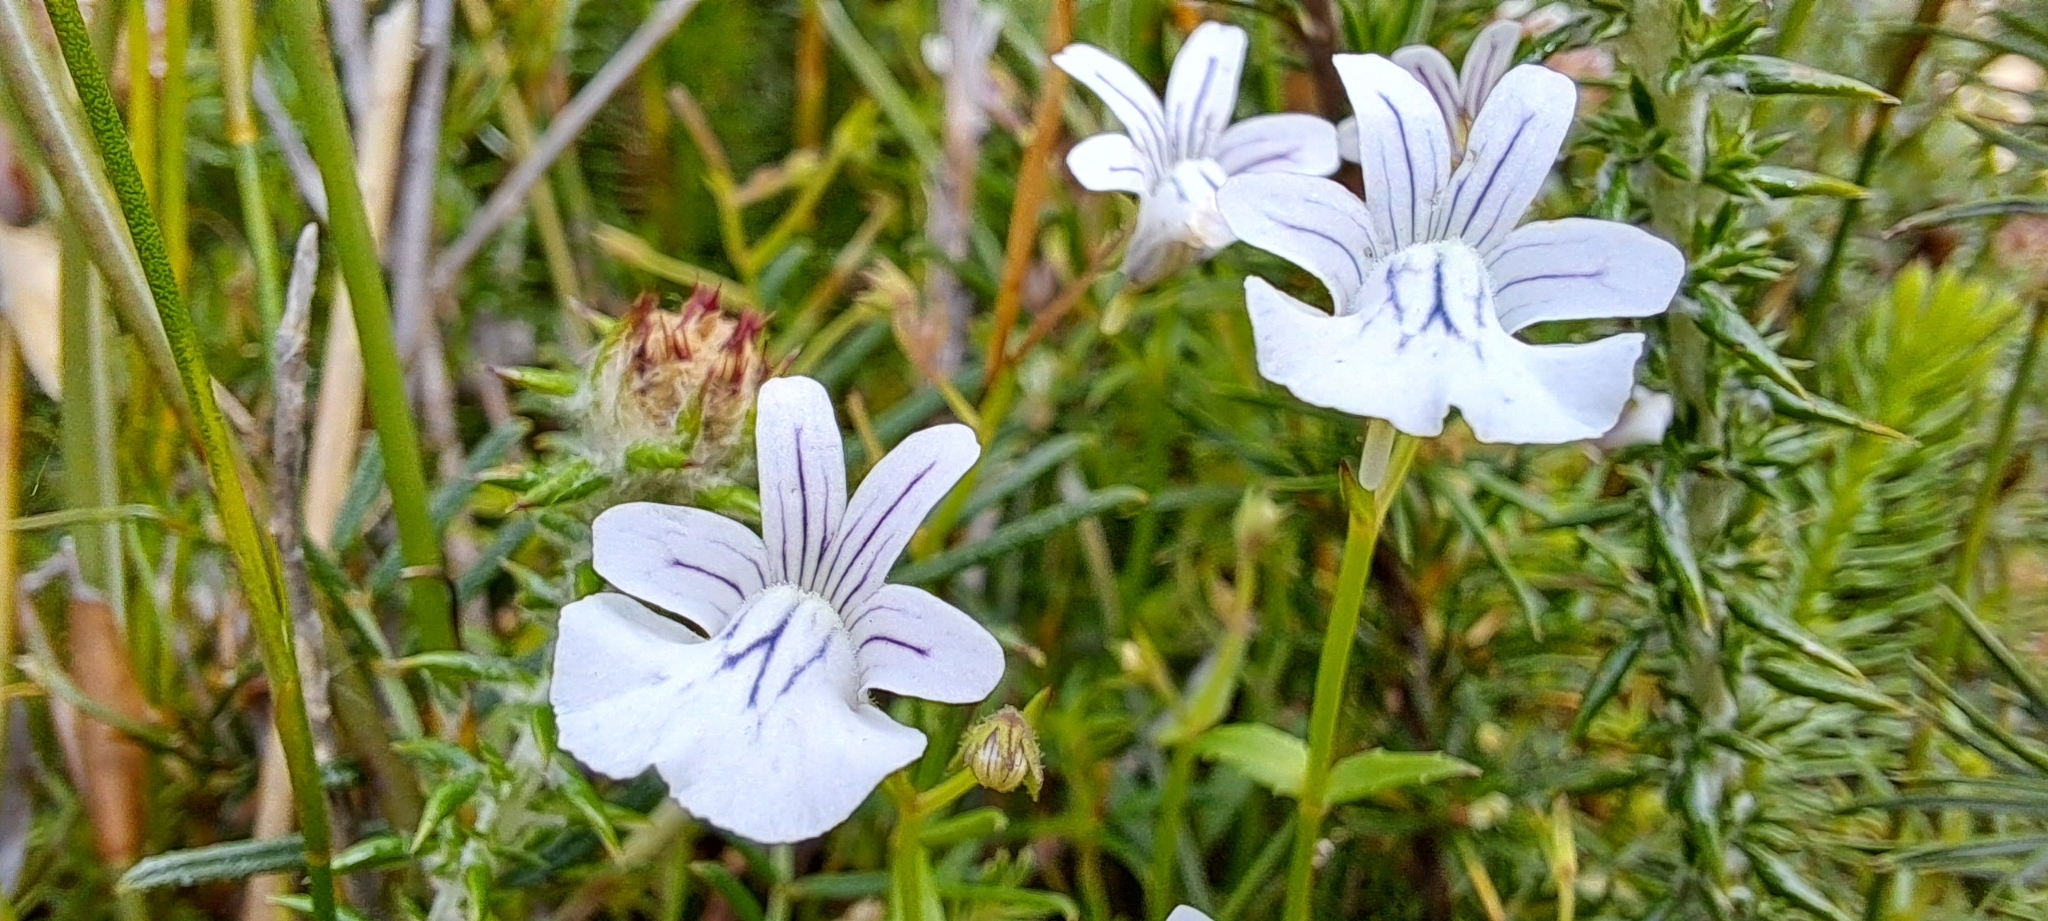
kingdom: Plantae
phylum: Tracheophyta
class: Magnoliopsida
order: Lamiales
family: Scrophulariaceae
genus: Nemesia
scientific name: Nemesia diffusa
